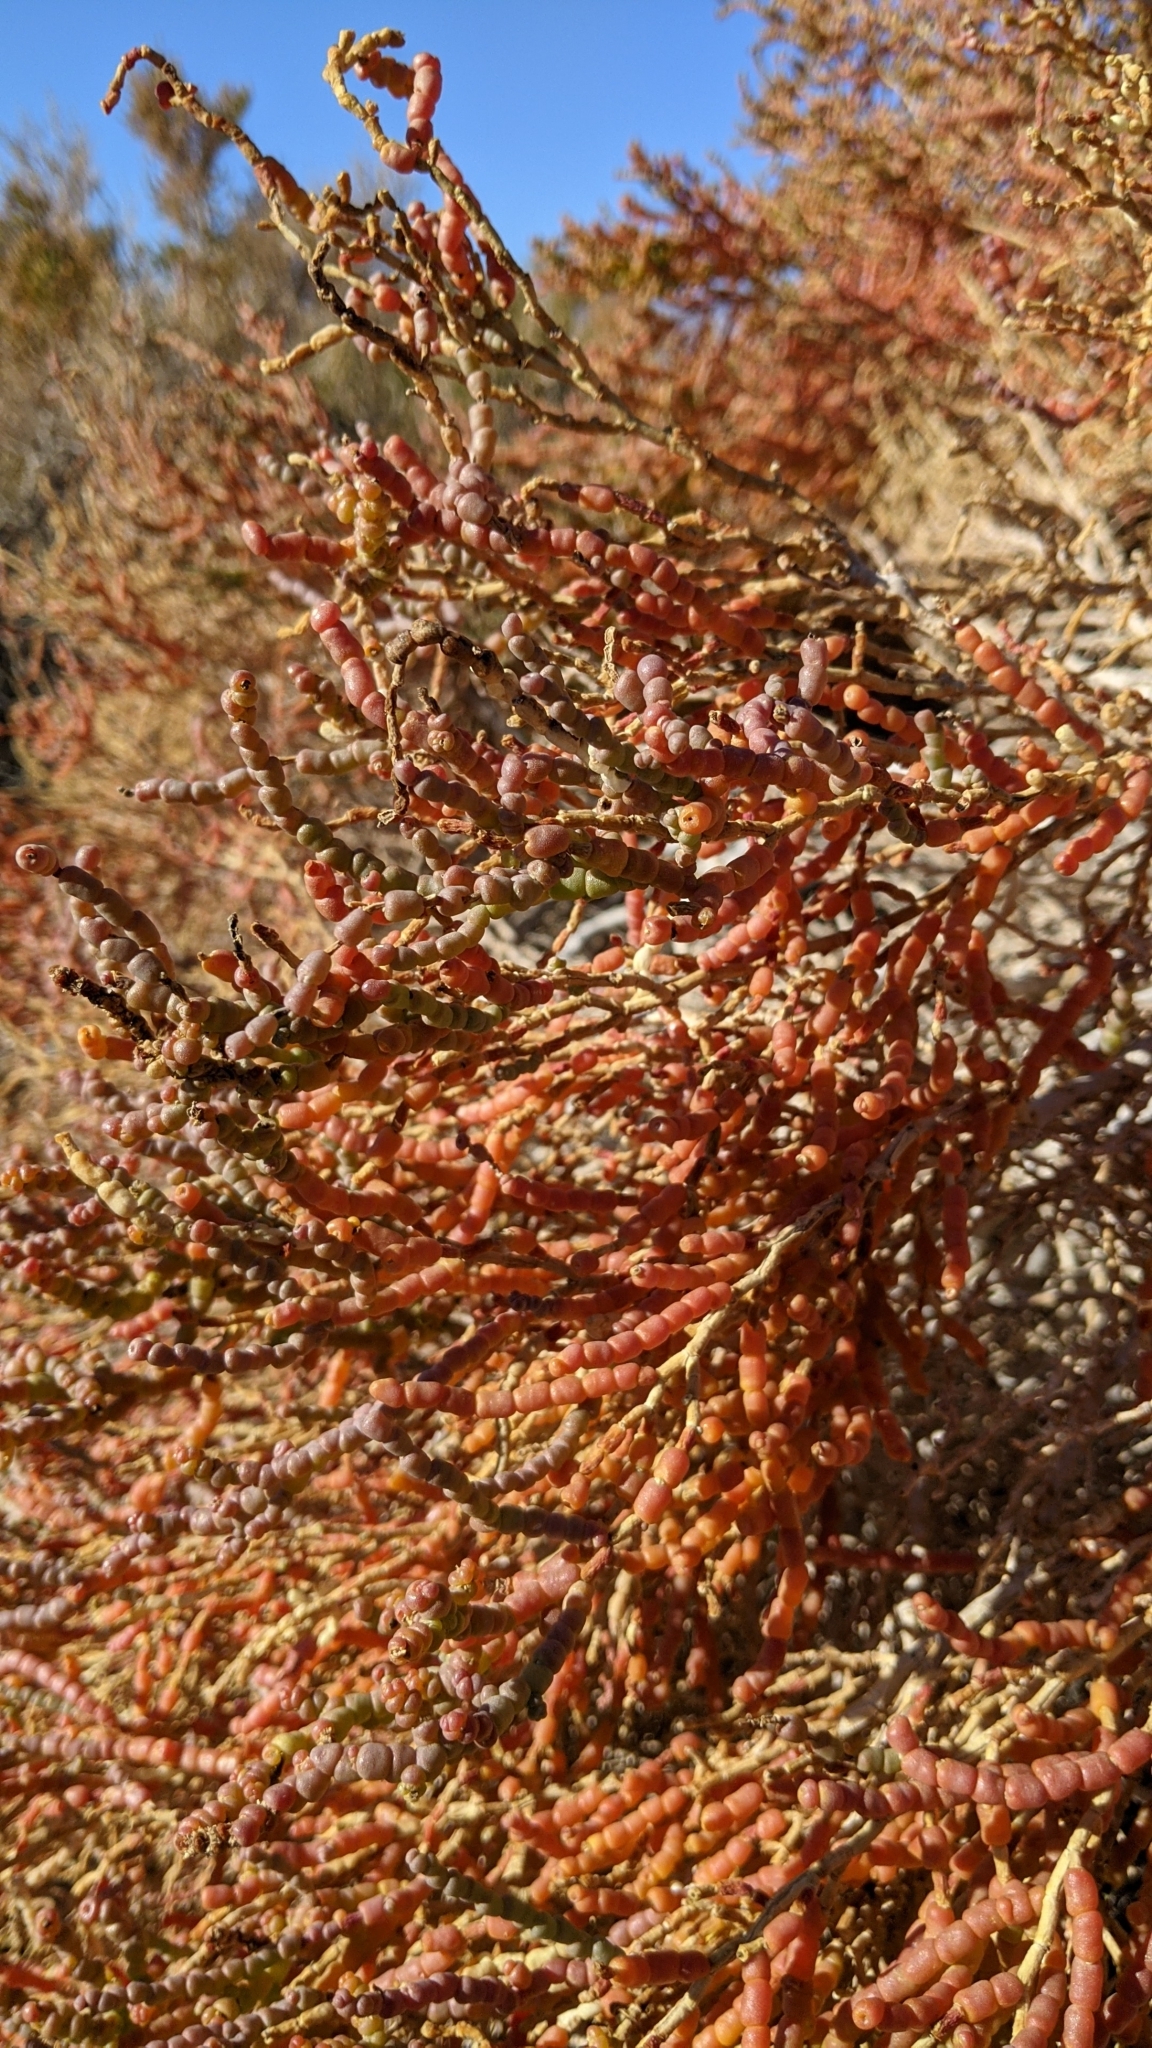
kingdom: Plantae
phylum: Tracheophyta
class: Magnoliopsida
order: Caryophyllales
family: Amaranthaceae
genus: Allenrolfea
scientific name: Allenrolfea occidentalis
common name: Iodine-bush
